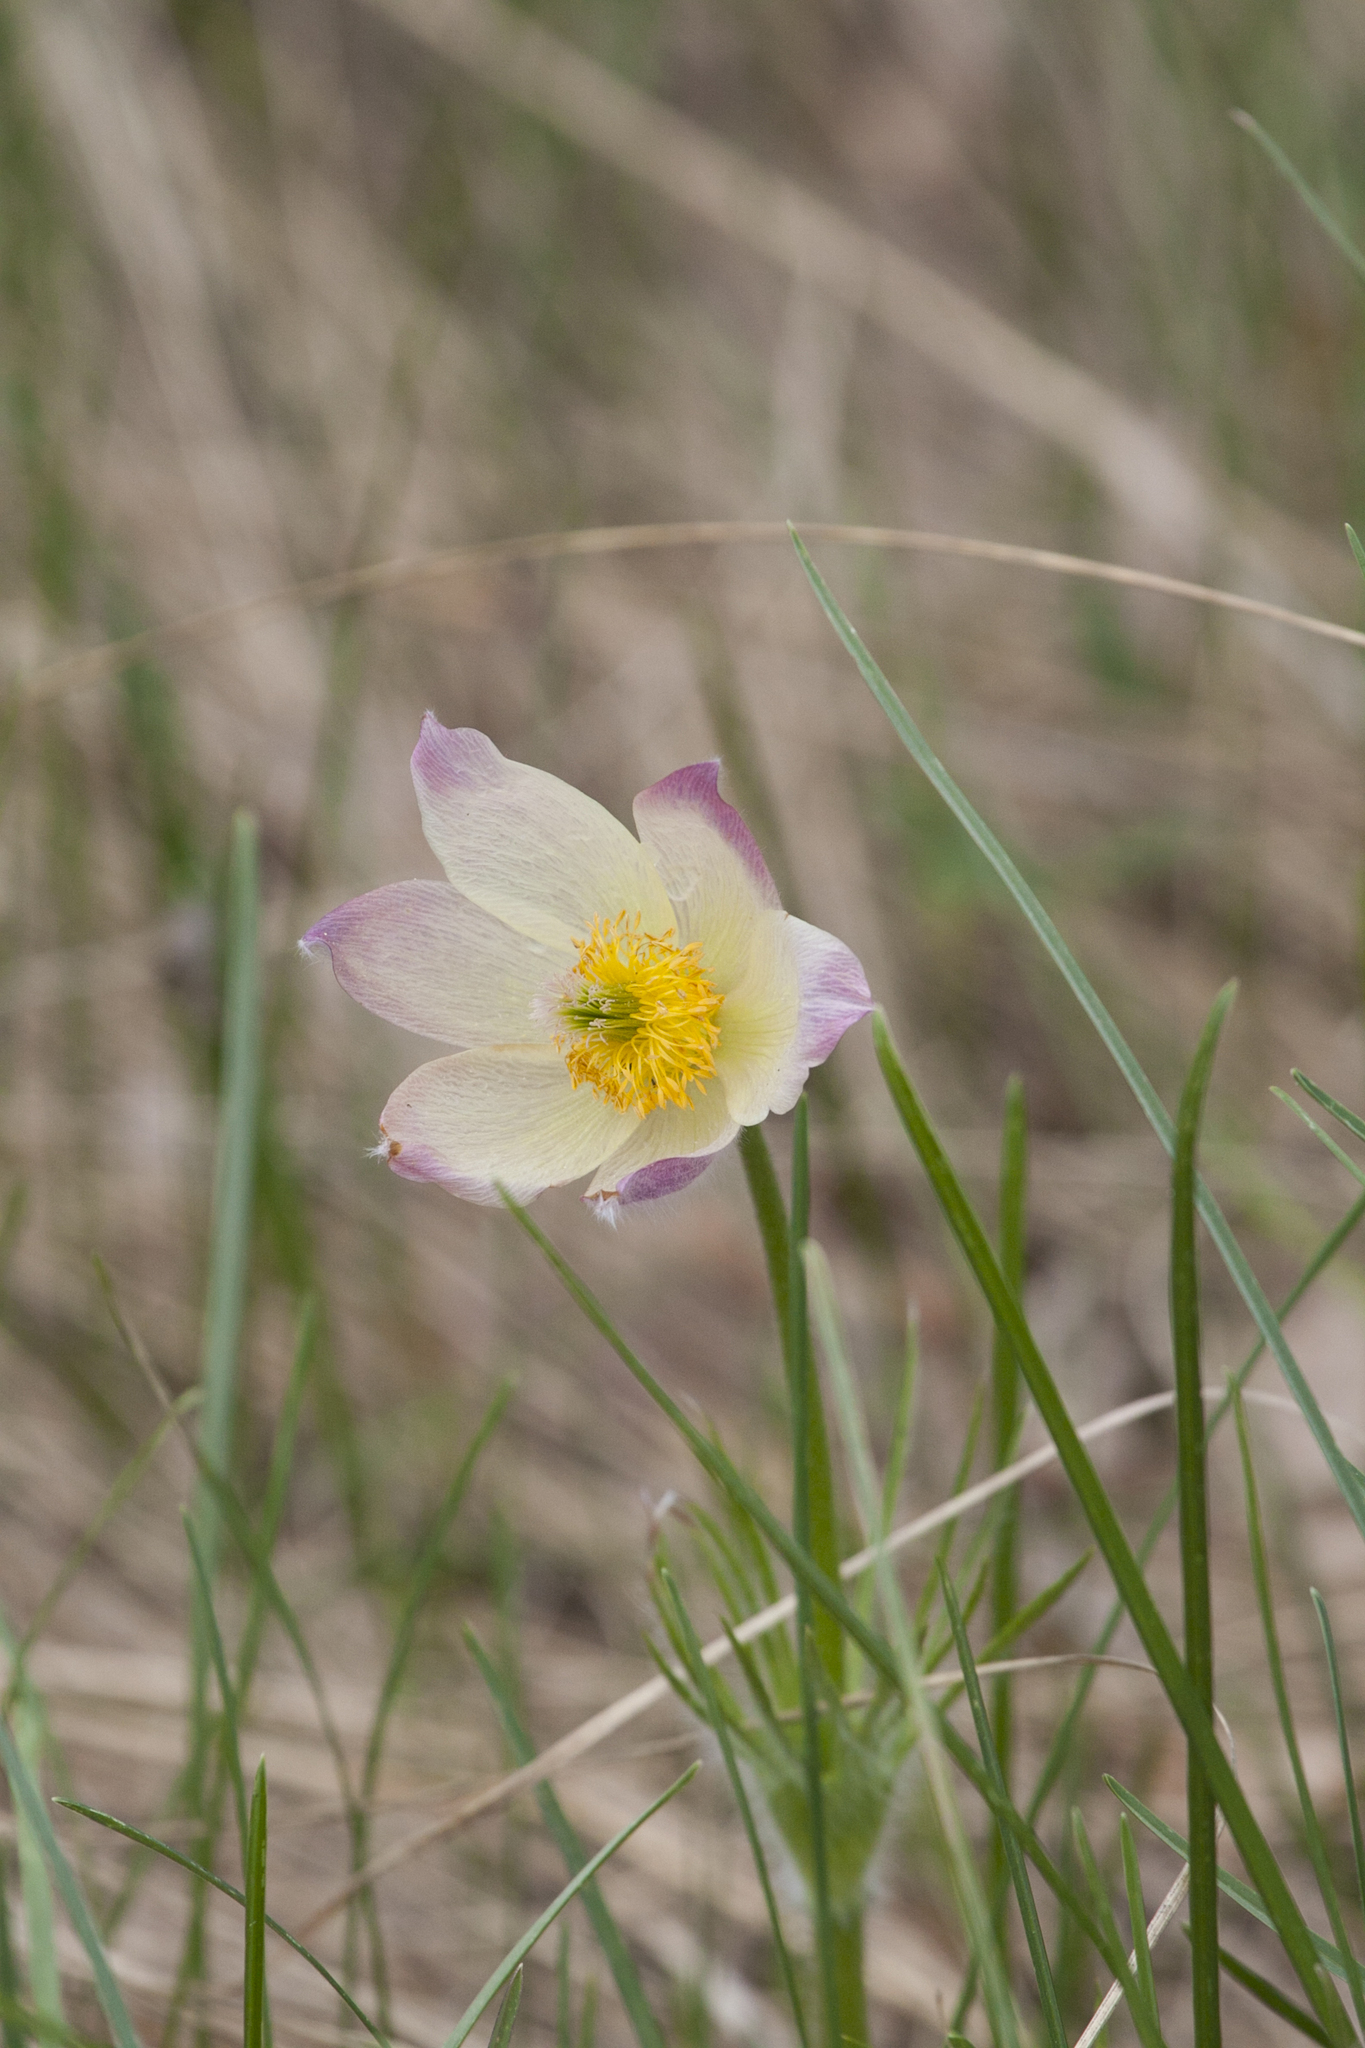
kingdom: Plantae
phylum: Tracheophyta
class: Magnoliopsida
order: Ranunculales
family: Ranunculaceae
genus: Pulsatilla
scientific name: Pulsatilla patens
